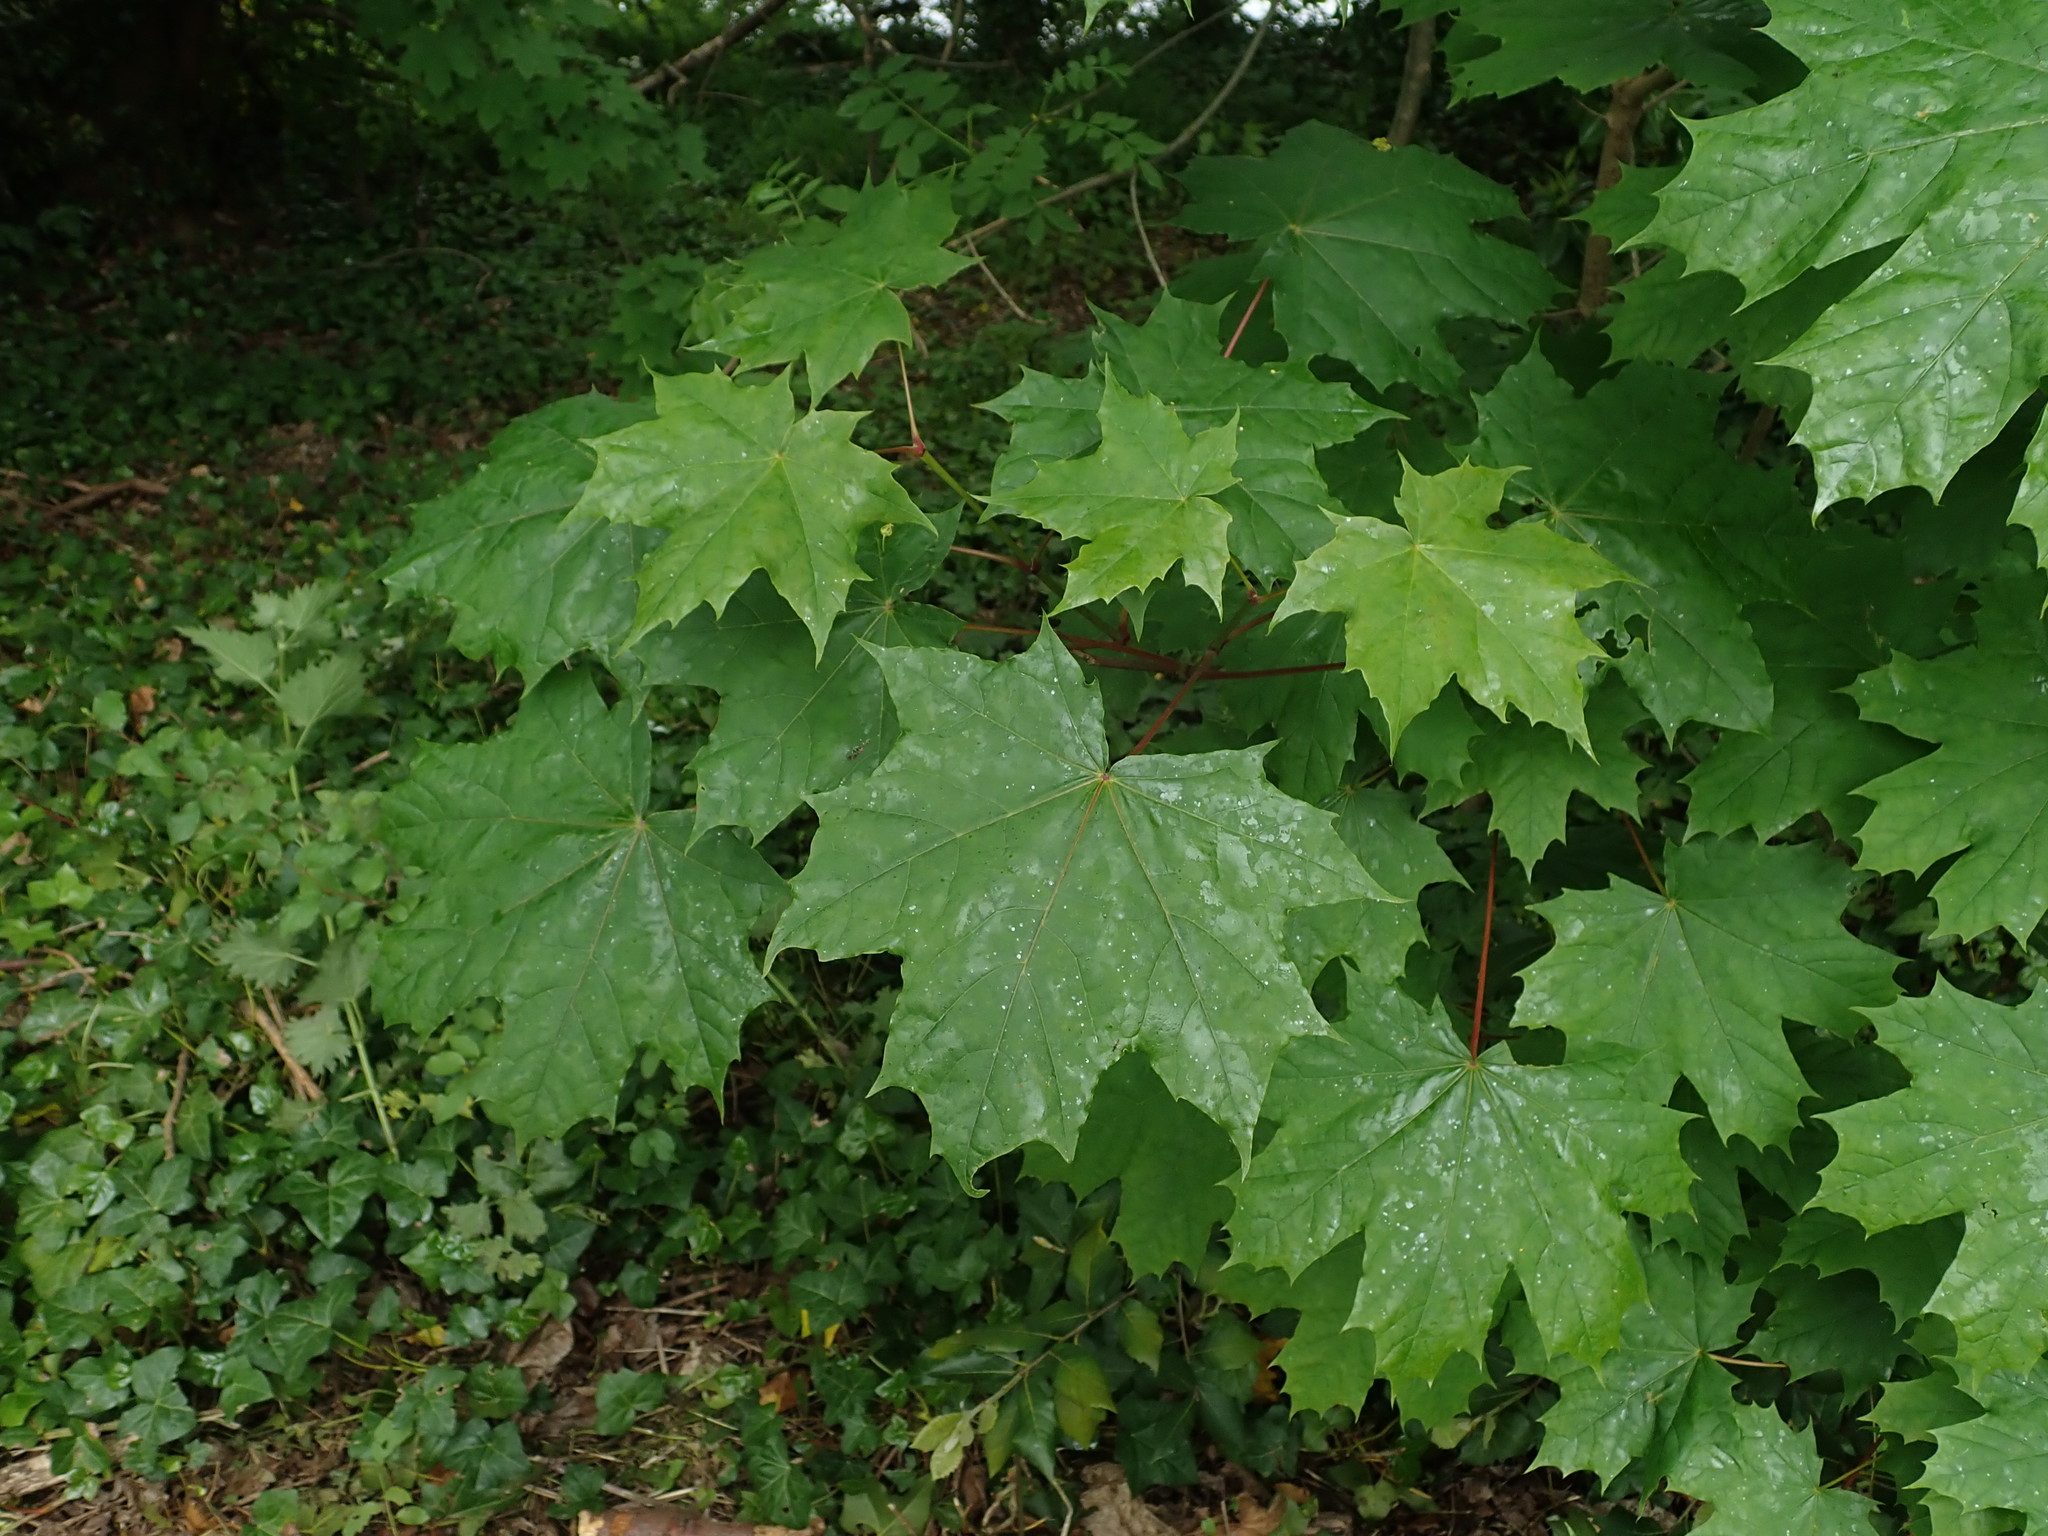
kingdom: Plantae
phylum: Tracheophyta
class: Magnoliopsida
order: Sapindales
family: Sapindaceae
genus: Acer
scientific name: Acer platanoides
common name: Norway maple
